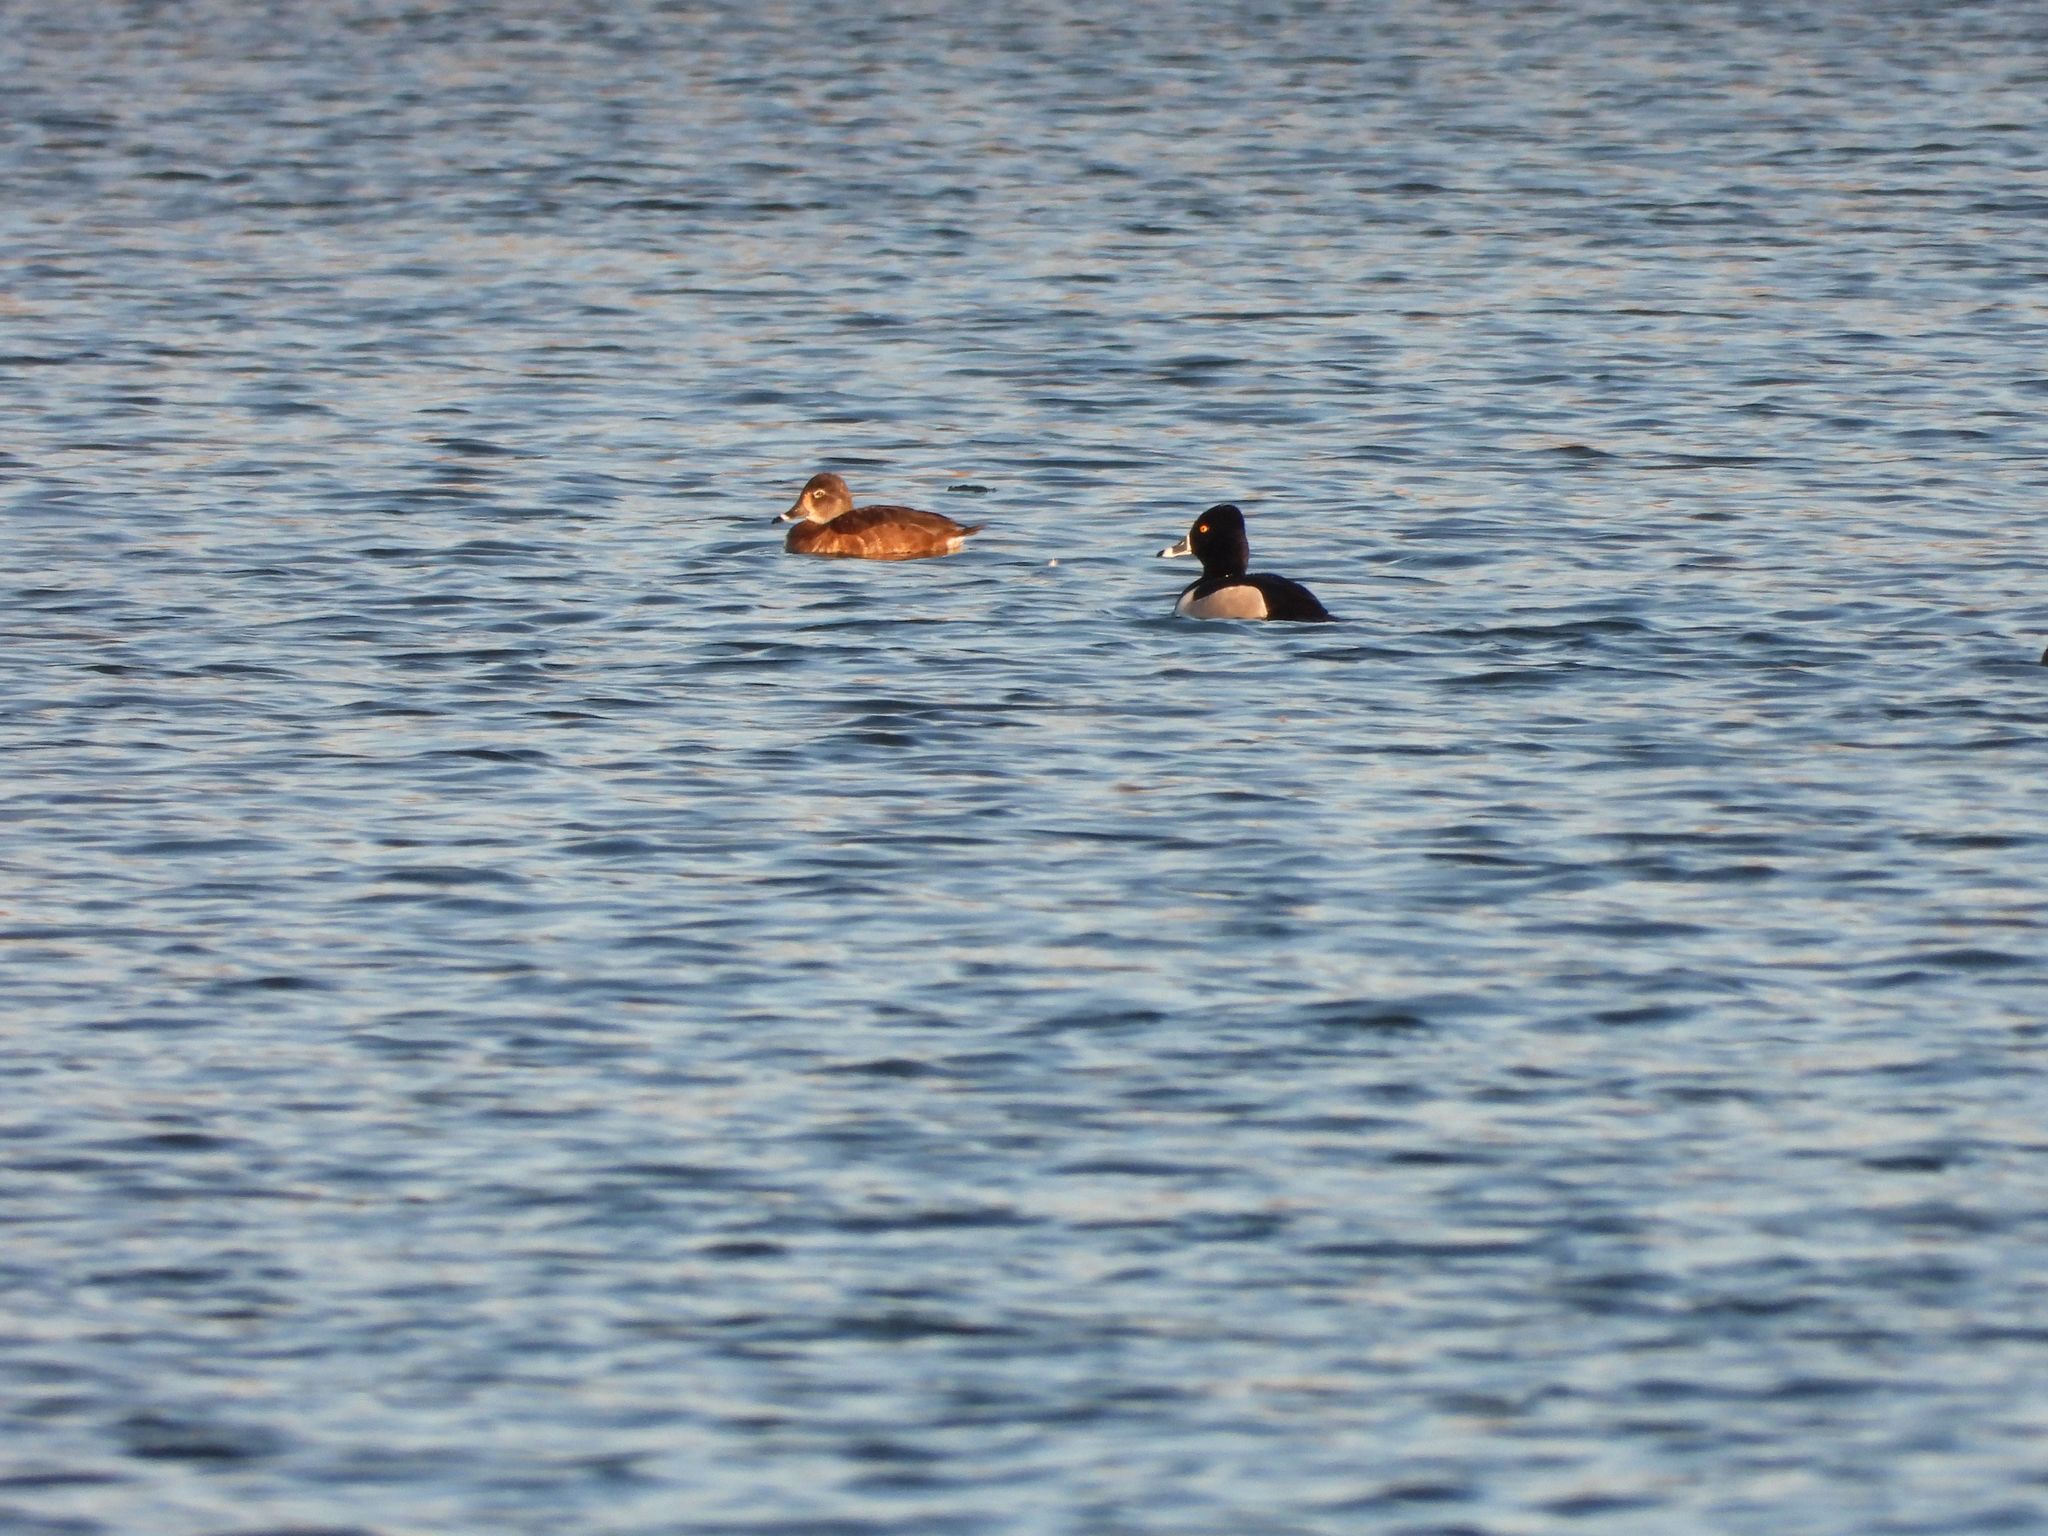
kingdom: Animalia
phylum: Chordata
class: Aves
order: Anseriformes
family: Anatidae
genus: Aythya
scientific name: Aythya collaris
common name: Ring-necked duck
